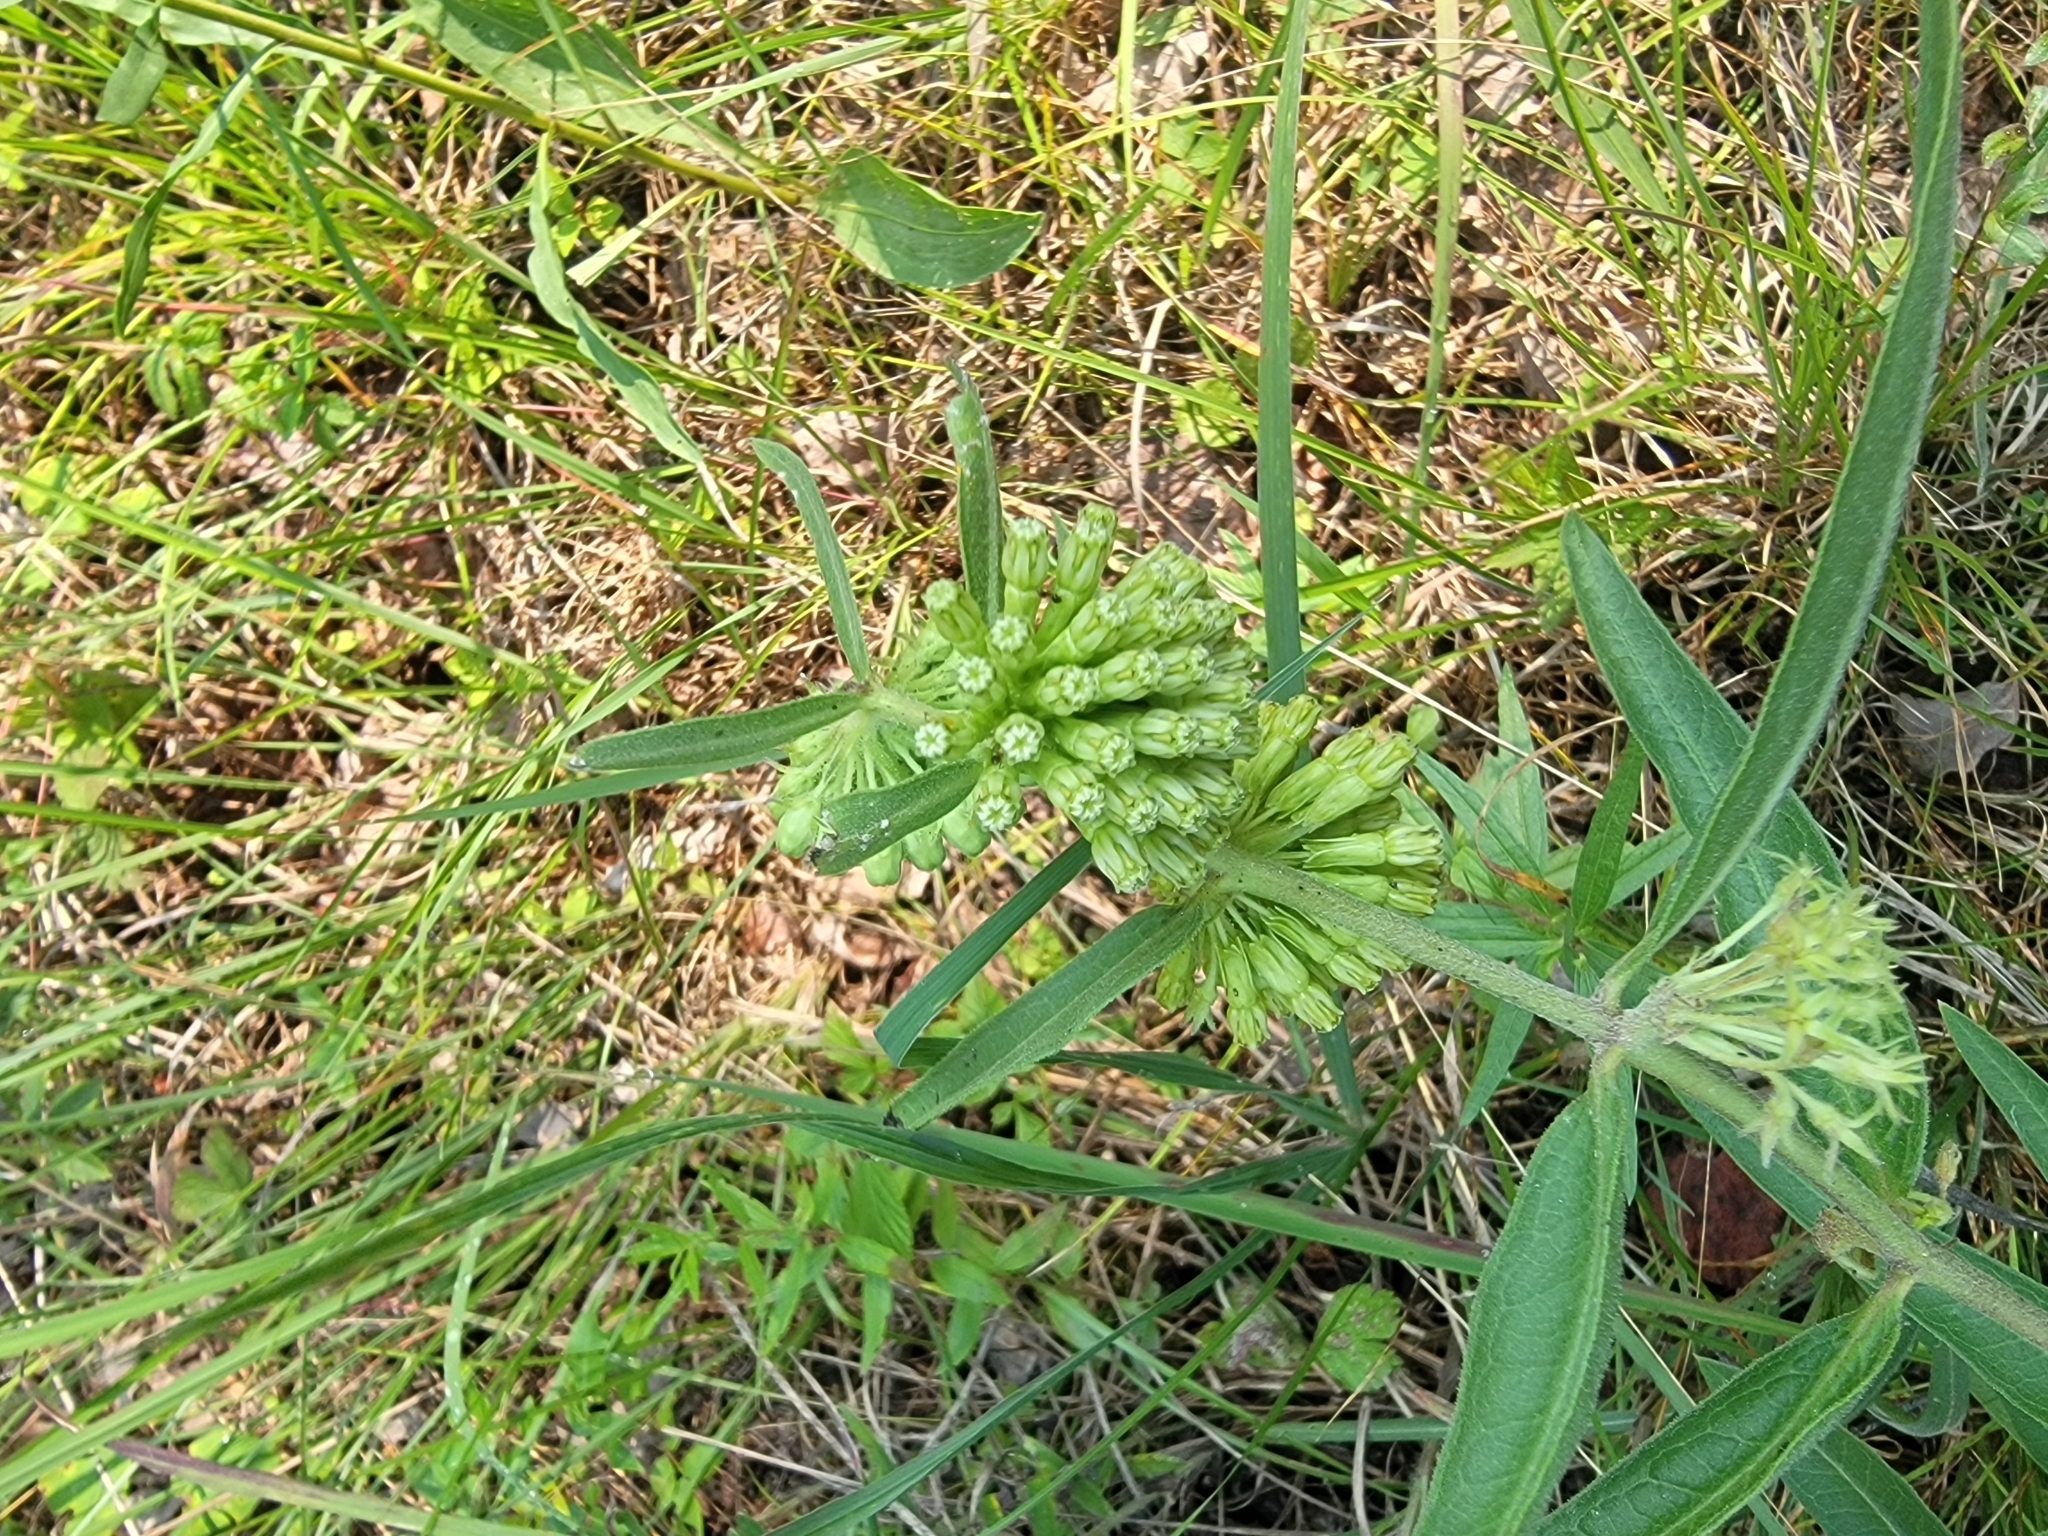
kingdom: Plantae
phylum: Tracheophyta
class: Magnoliopsida
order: Gentianales
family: Apocynaceae
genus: Asclepias
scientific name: Asclepias viridiflora
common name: Green comet milkweed
